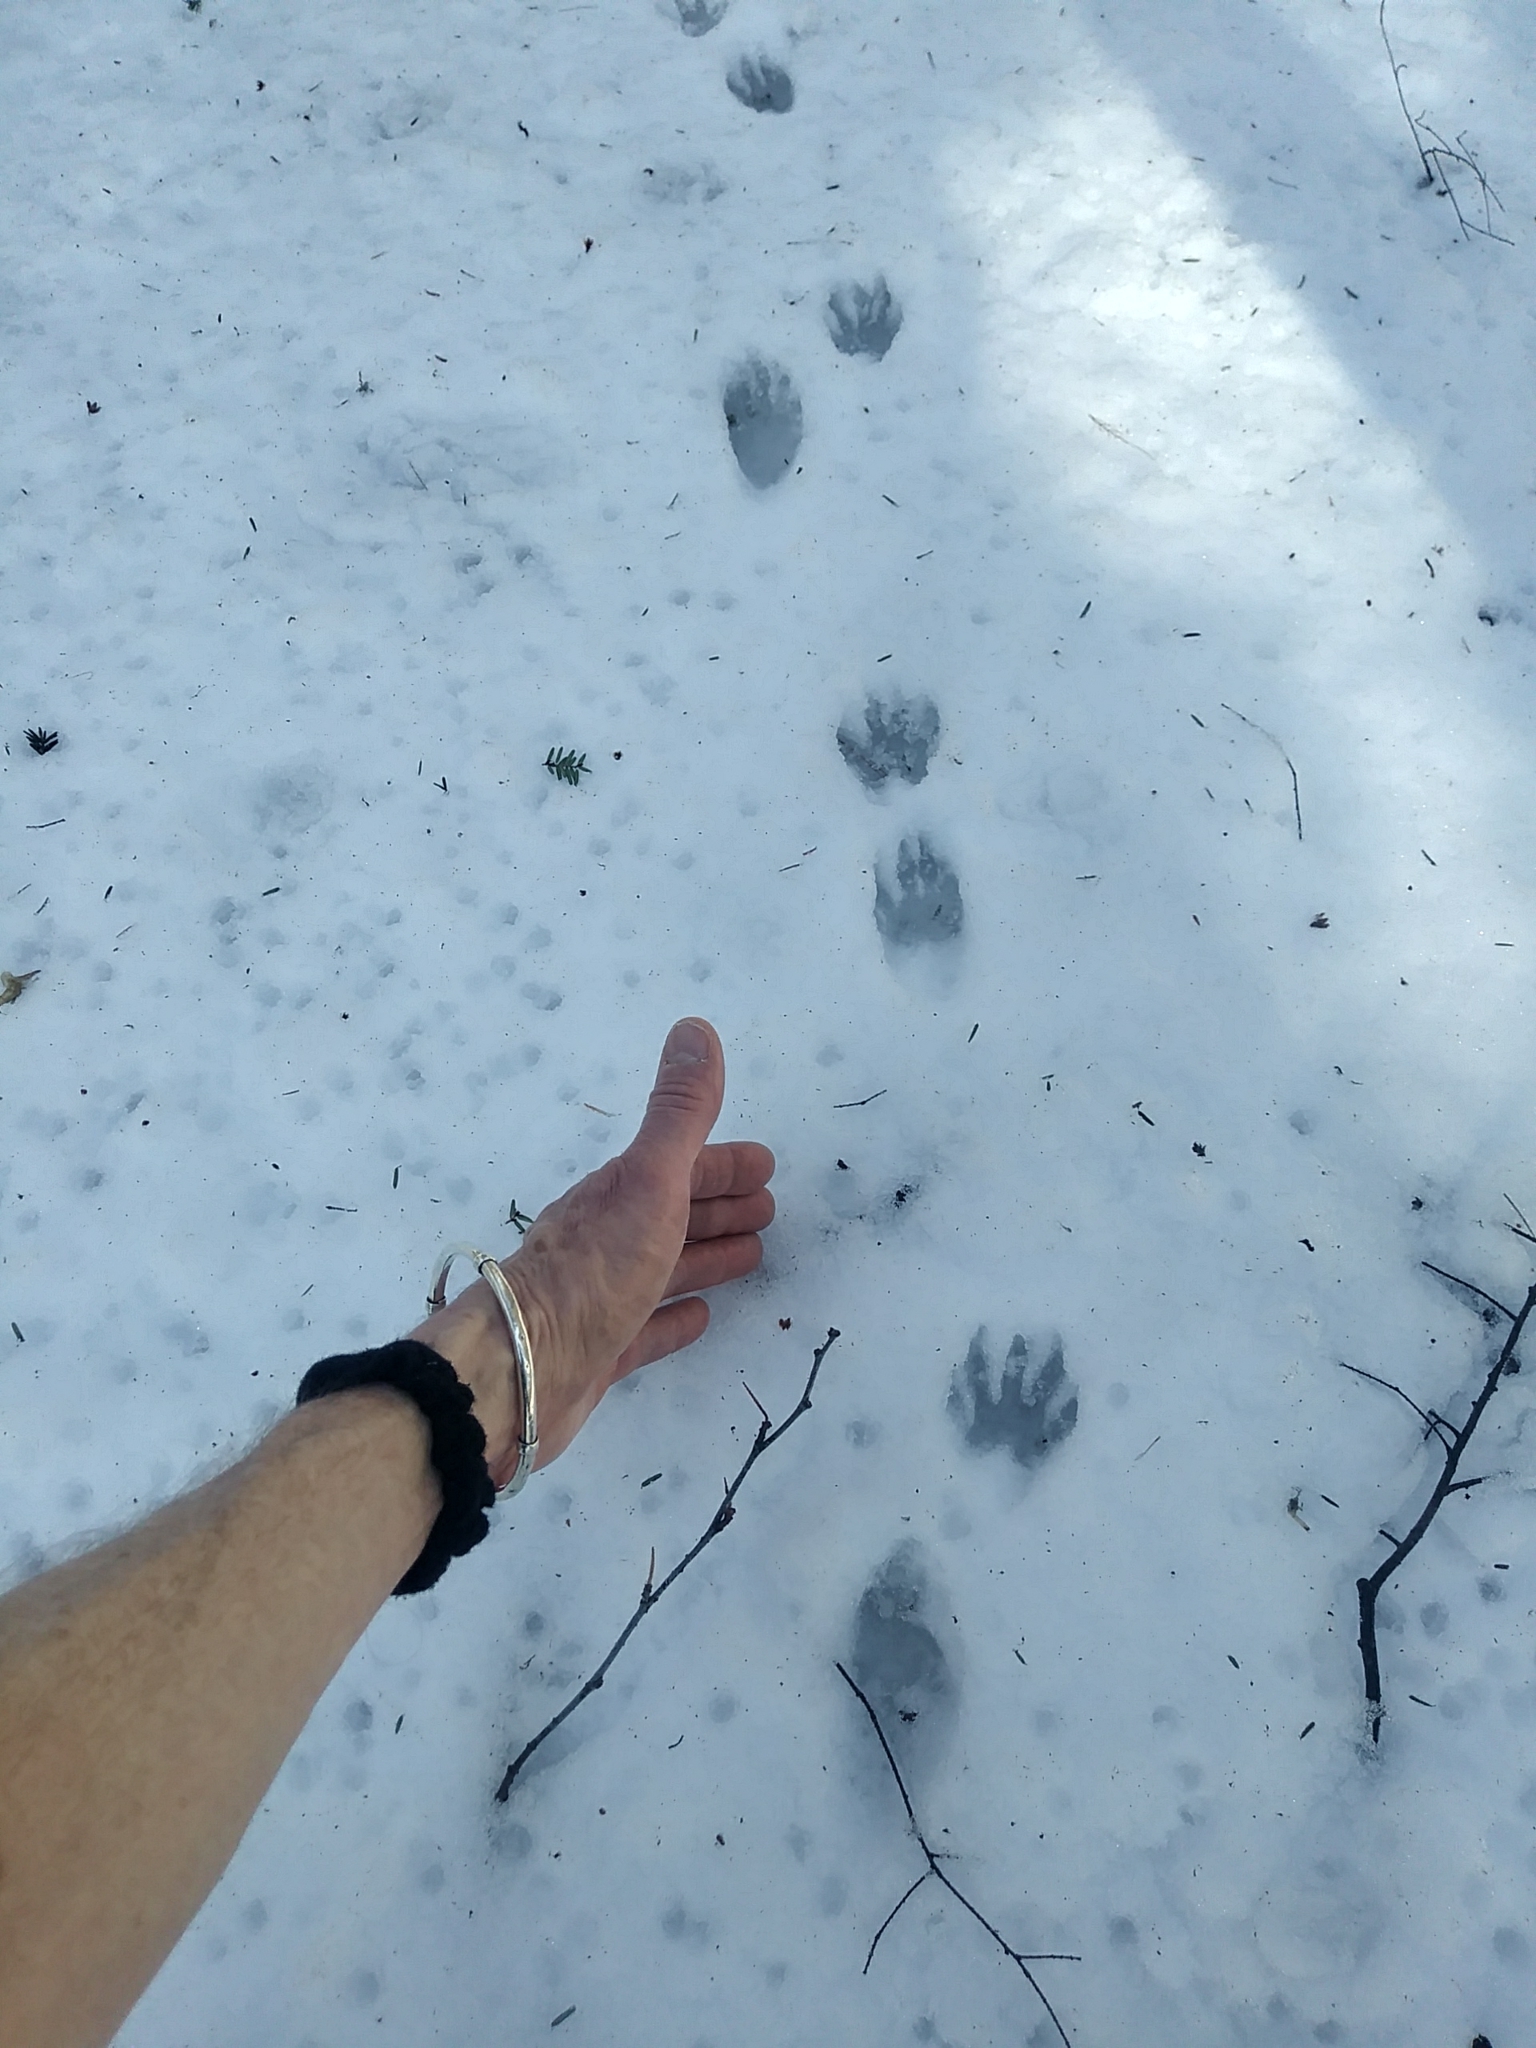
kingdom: Animalia
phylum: Chordata
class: Mammalia
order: Carnivora
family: Procyonidae
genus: Procyon
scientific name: Procyon lotor
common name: Raccoon
